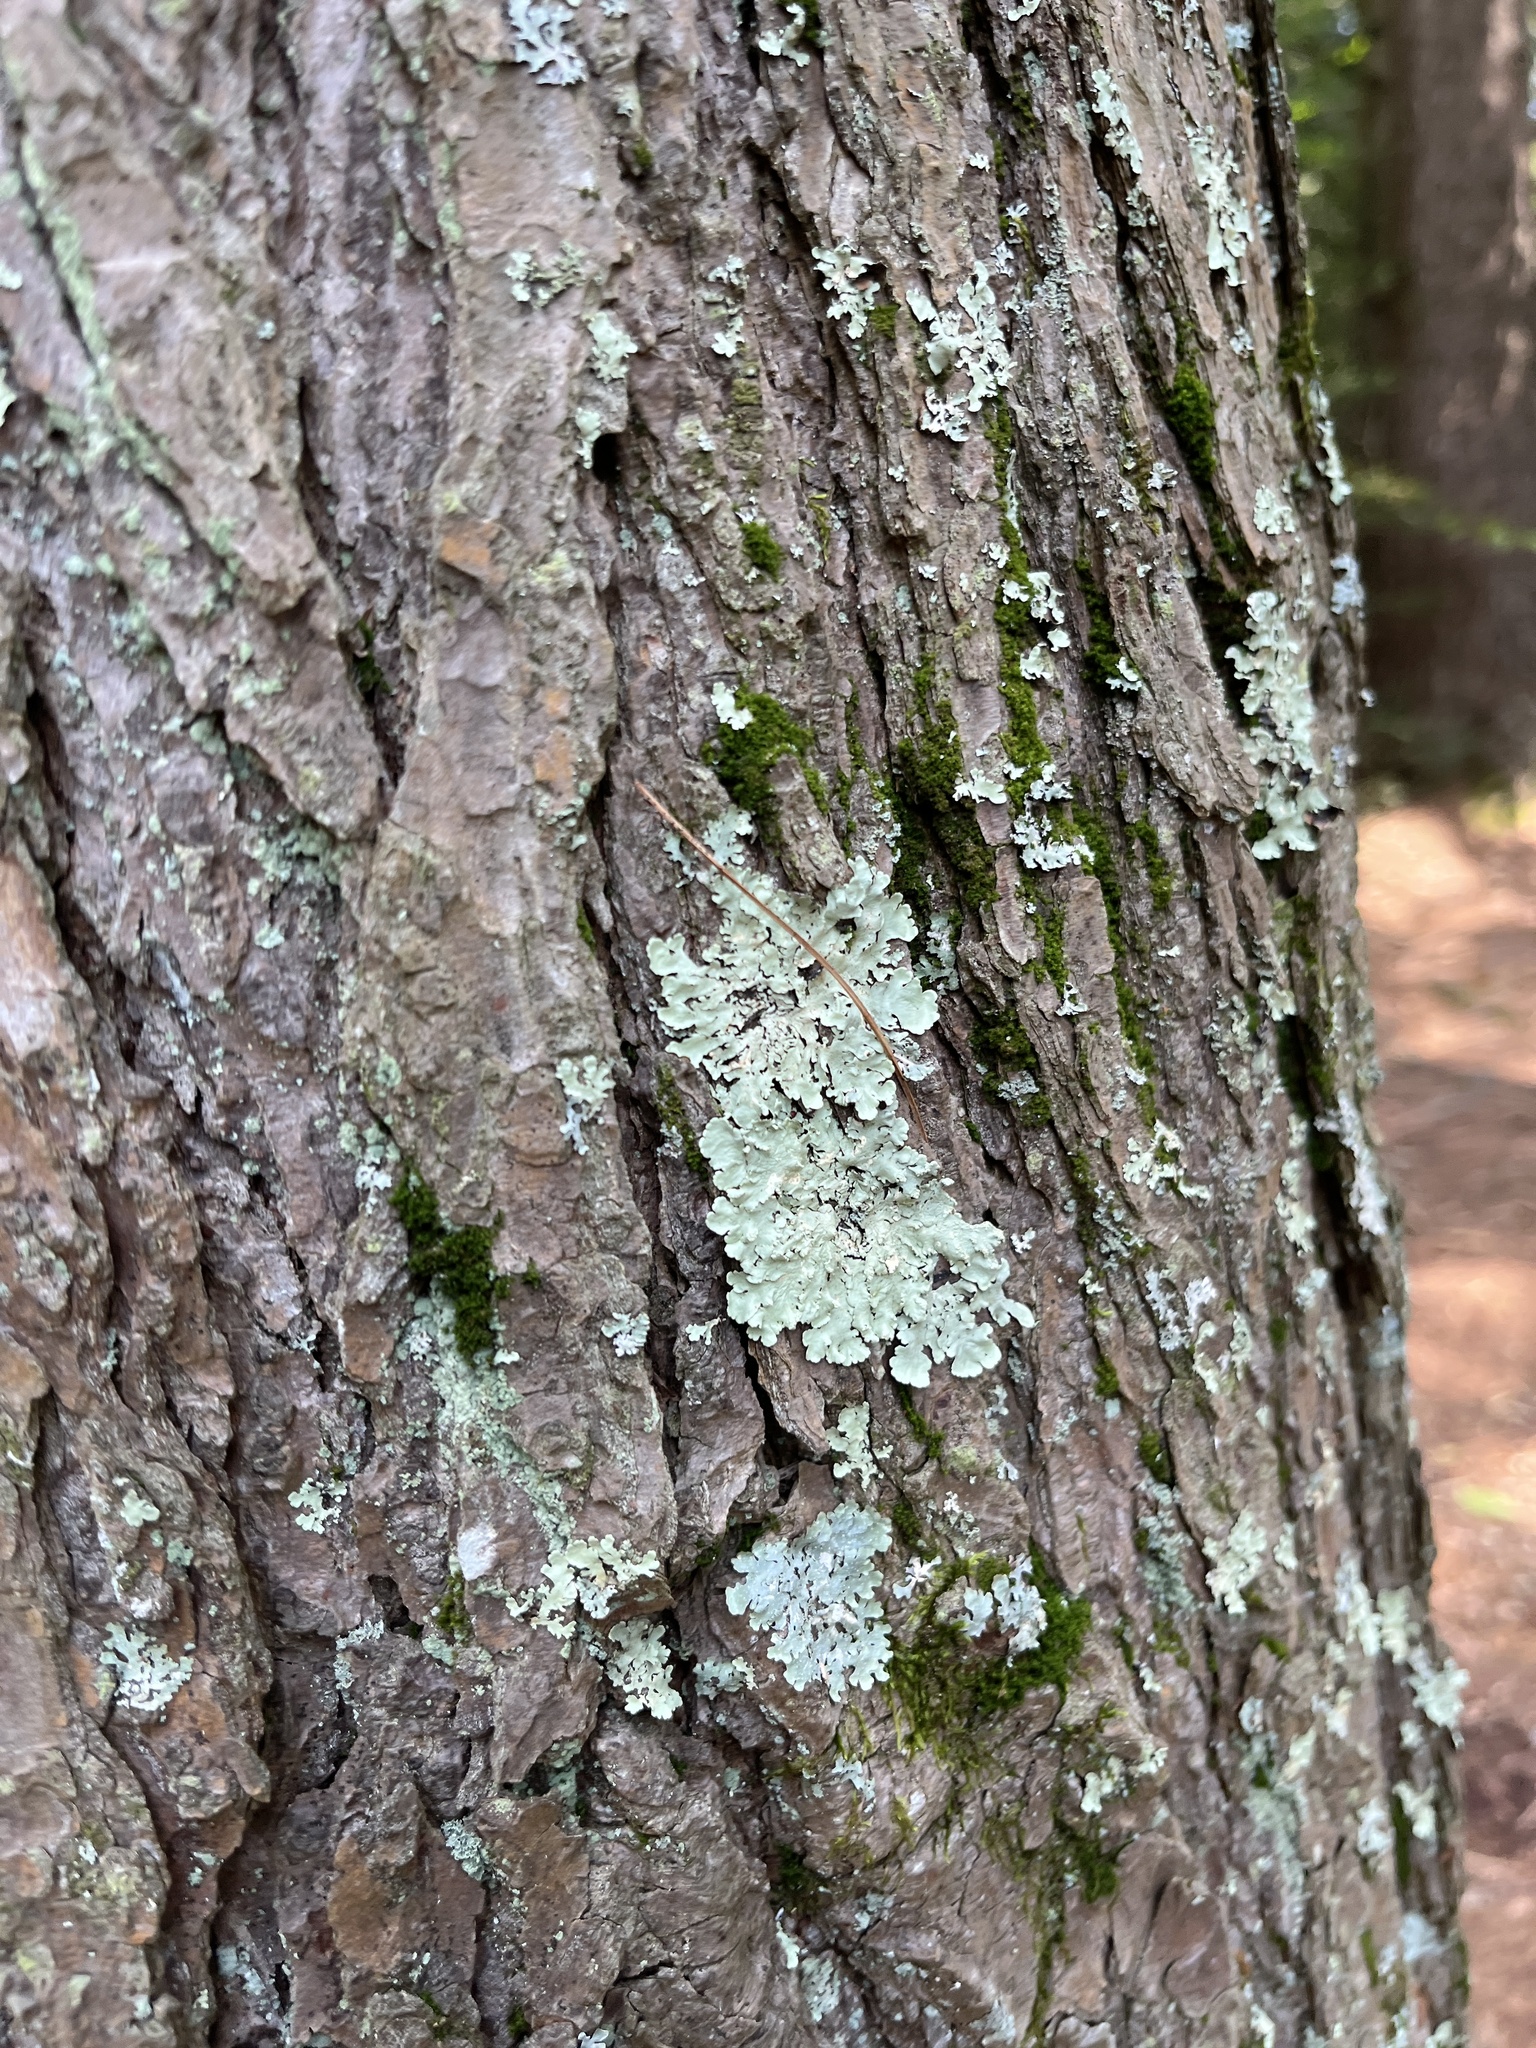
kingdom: Fungi
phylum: Ascomycota
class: Lecanoromycetes
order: Lecanorales
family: Parmeliaceae
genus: Flavoparmelia
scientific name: Flavoparmelia caperata
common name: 40-mile per hour lichen
